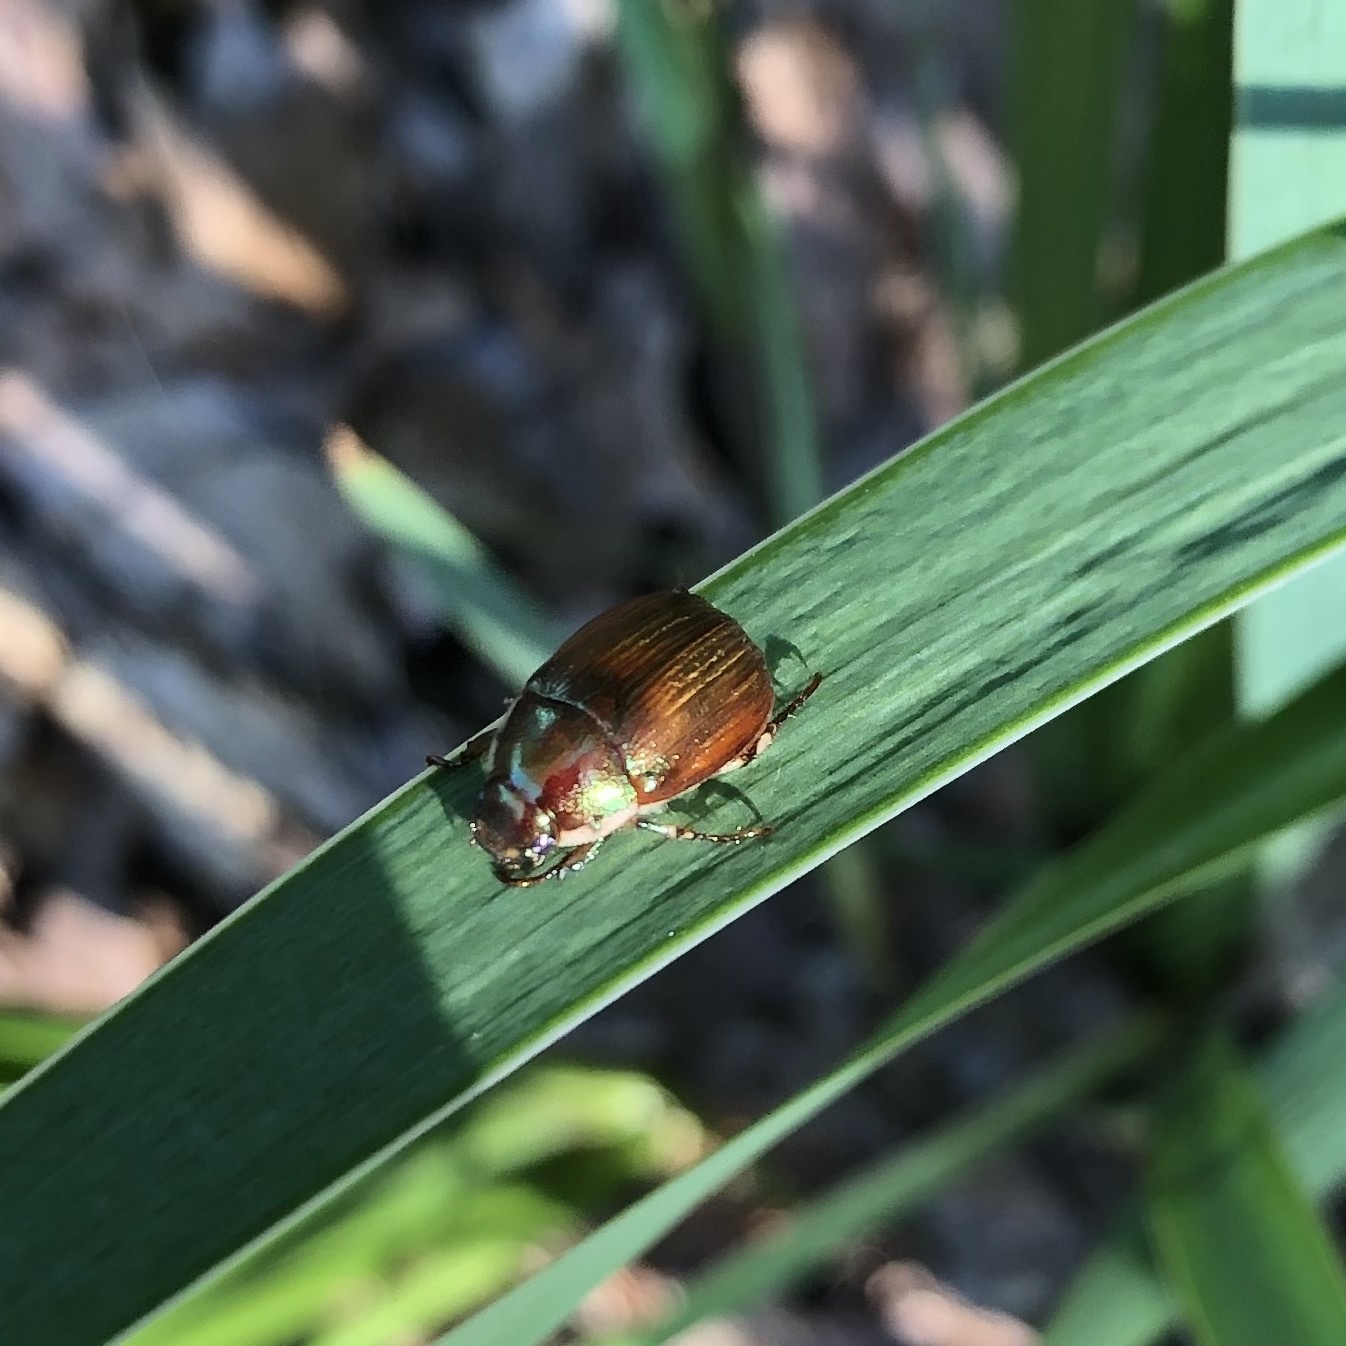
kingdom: Animalia
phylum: Arthropoda
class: Insecta
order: Coleoptera
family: Scarabaeidae
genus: Callistethus
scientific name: Callistethus marginatus
